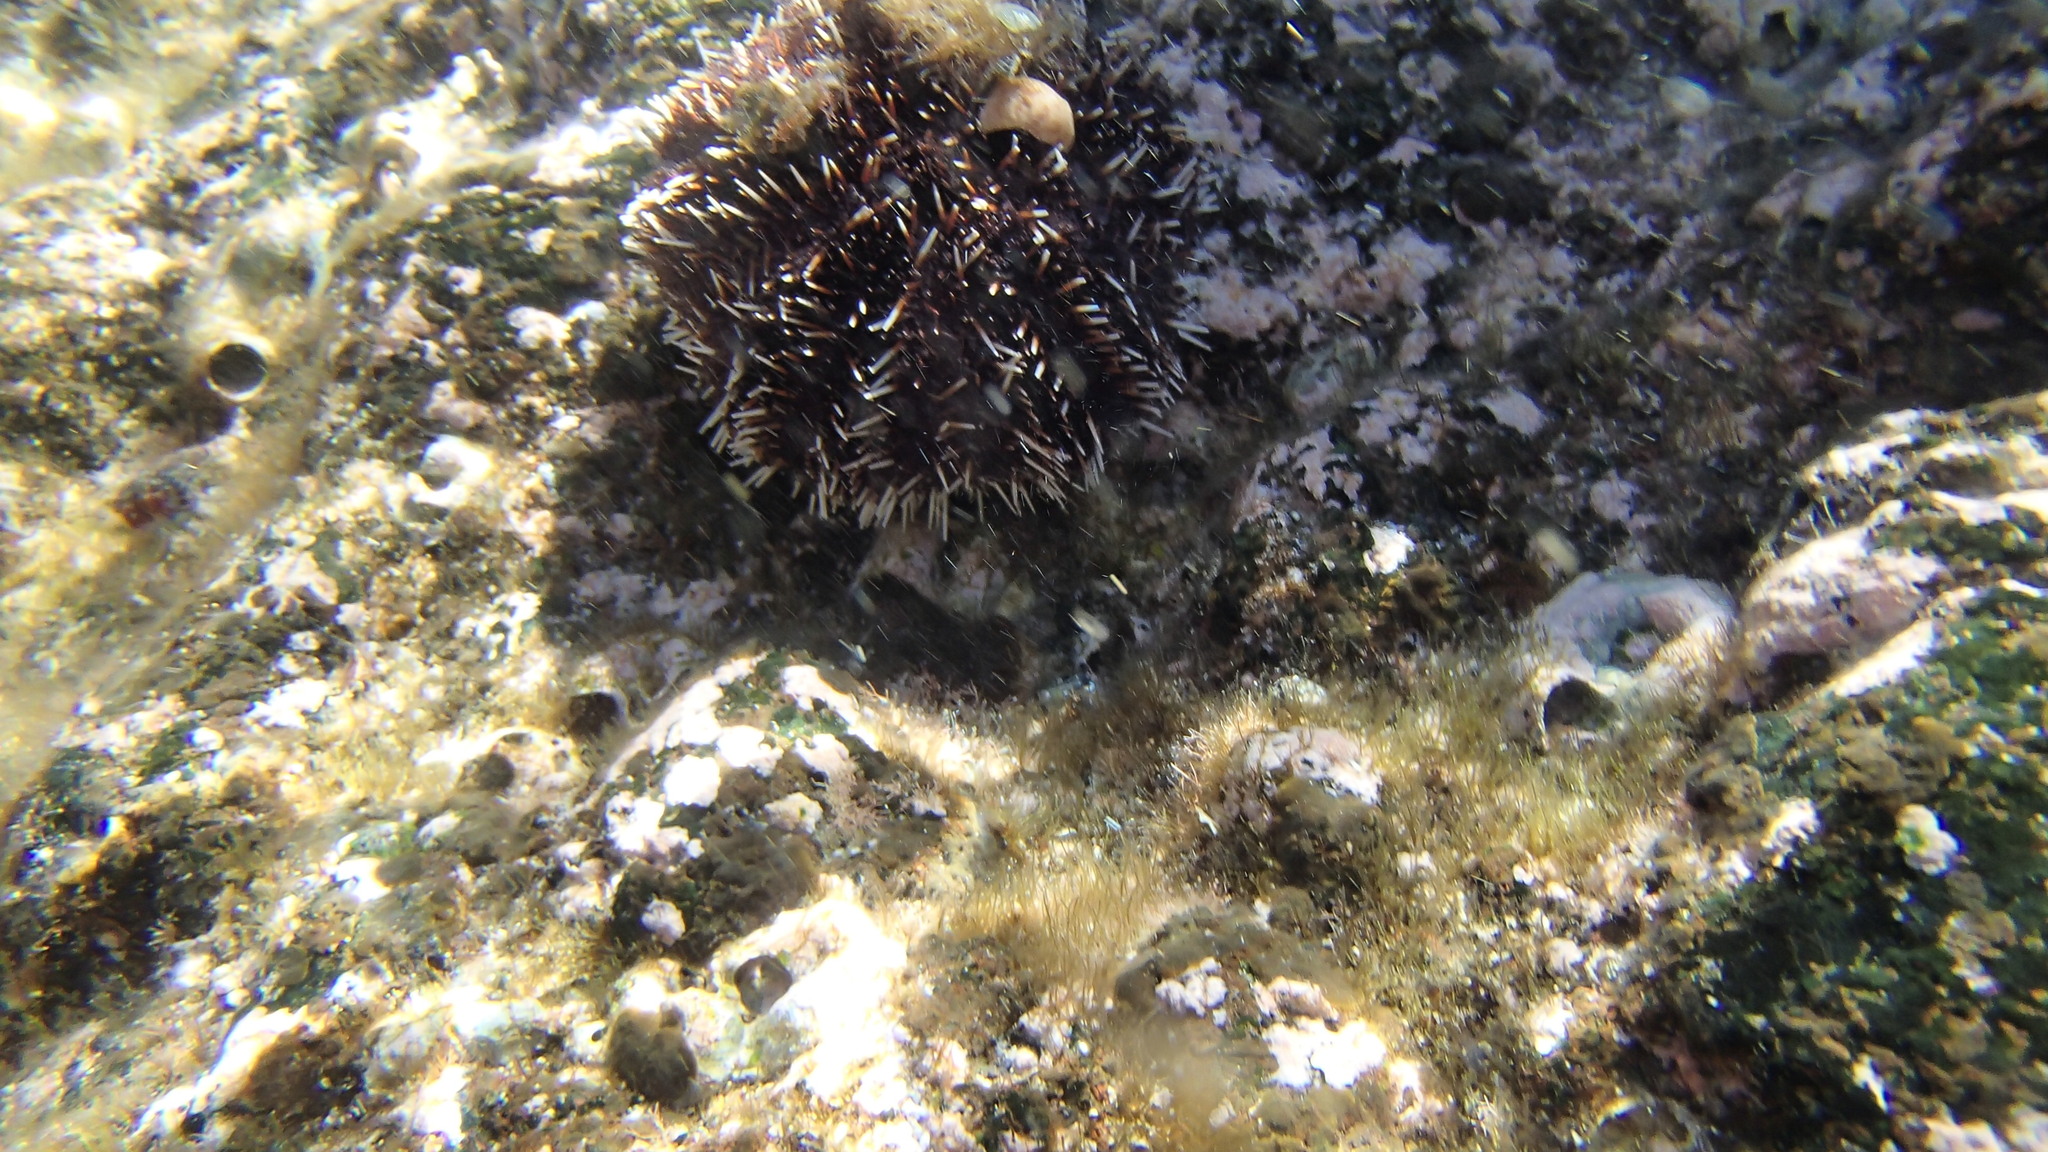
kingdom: Animalia
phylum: Echinodermata
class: Echinoidea
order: Camarodonta
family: Toxopneustidae
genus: Tripneustes
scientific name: Tripneustes gratilla
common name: Bischofsmützenseeigel
